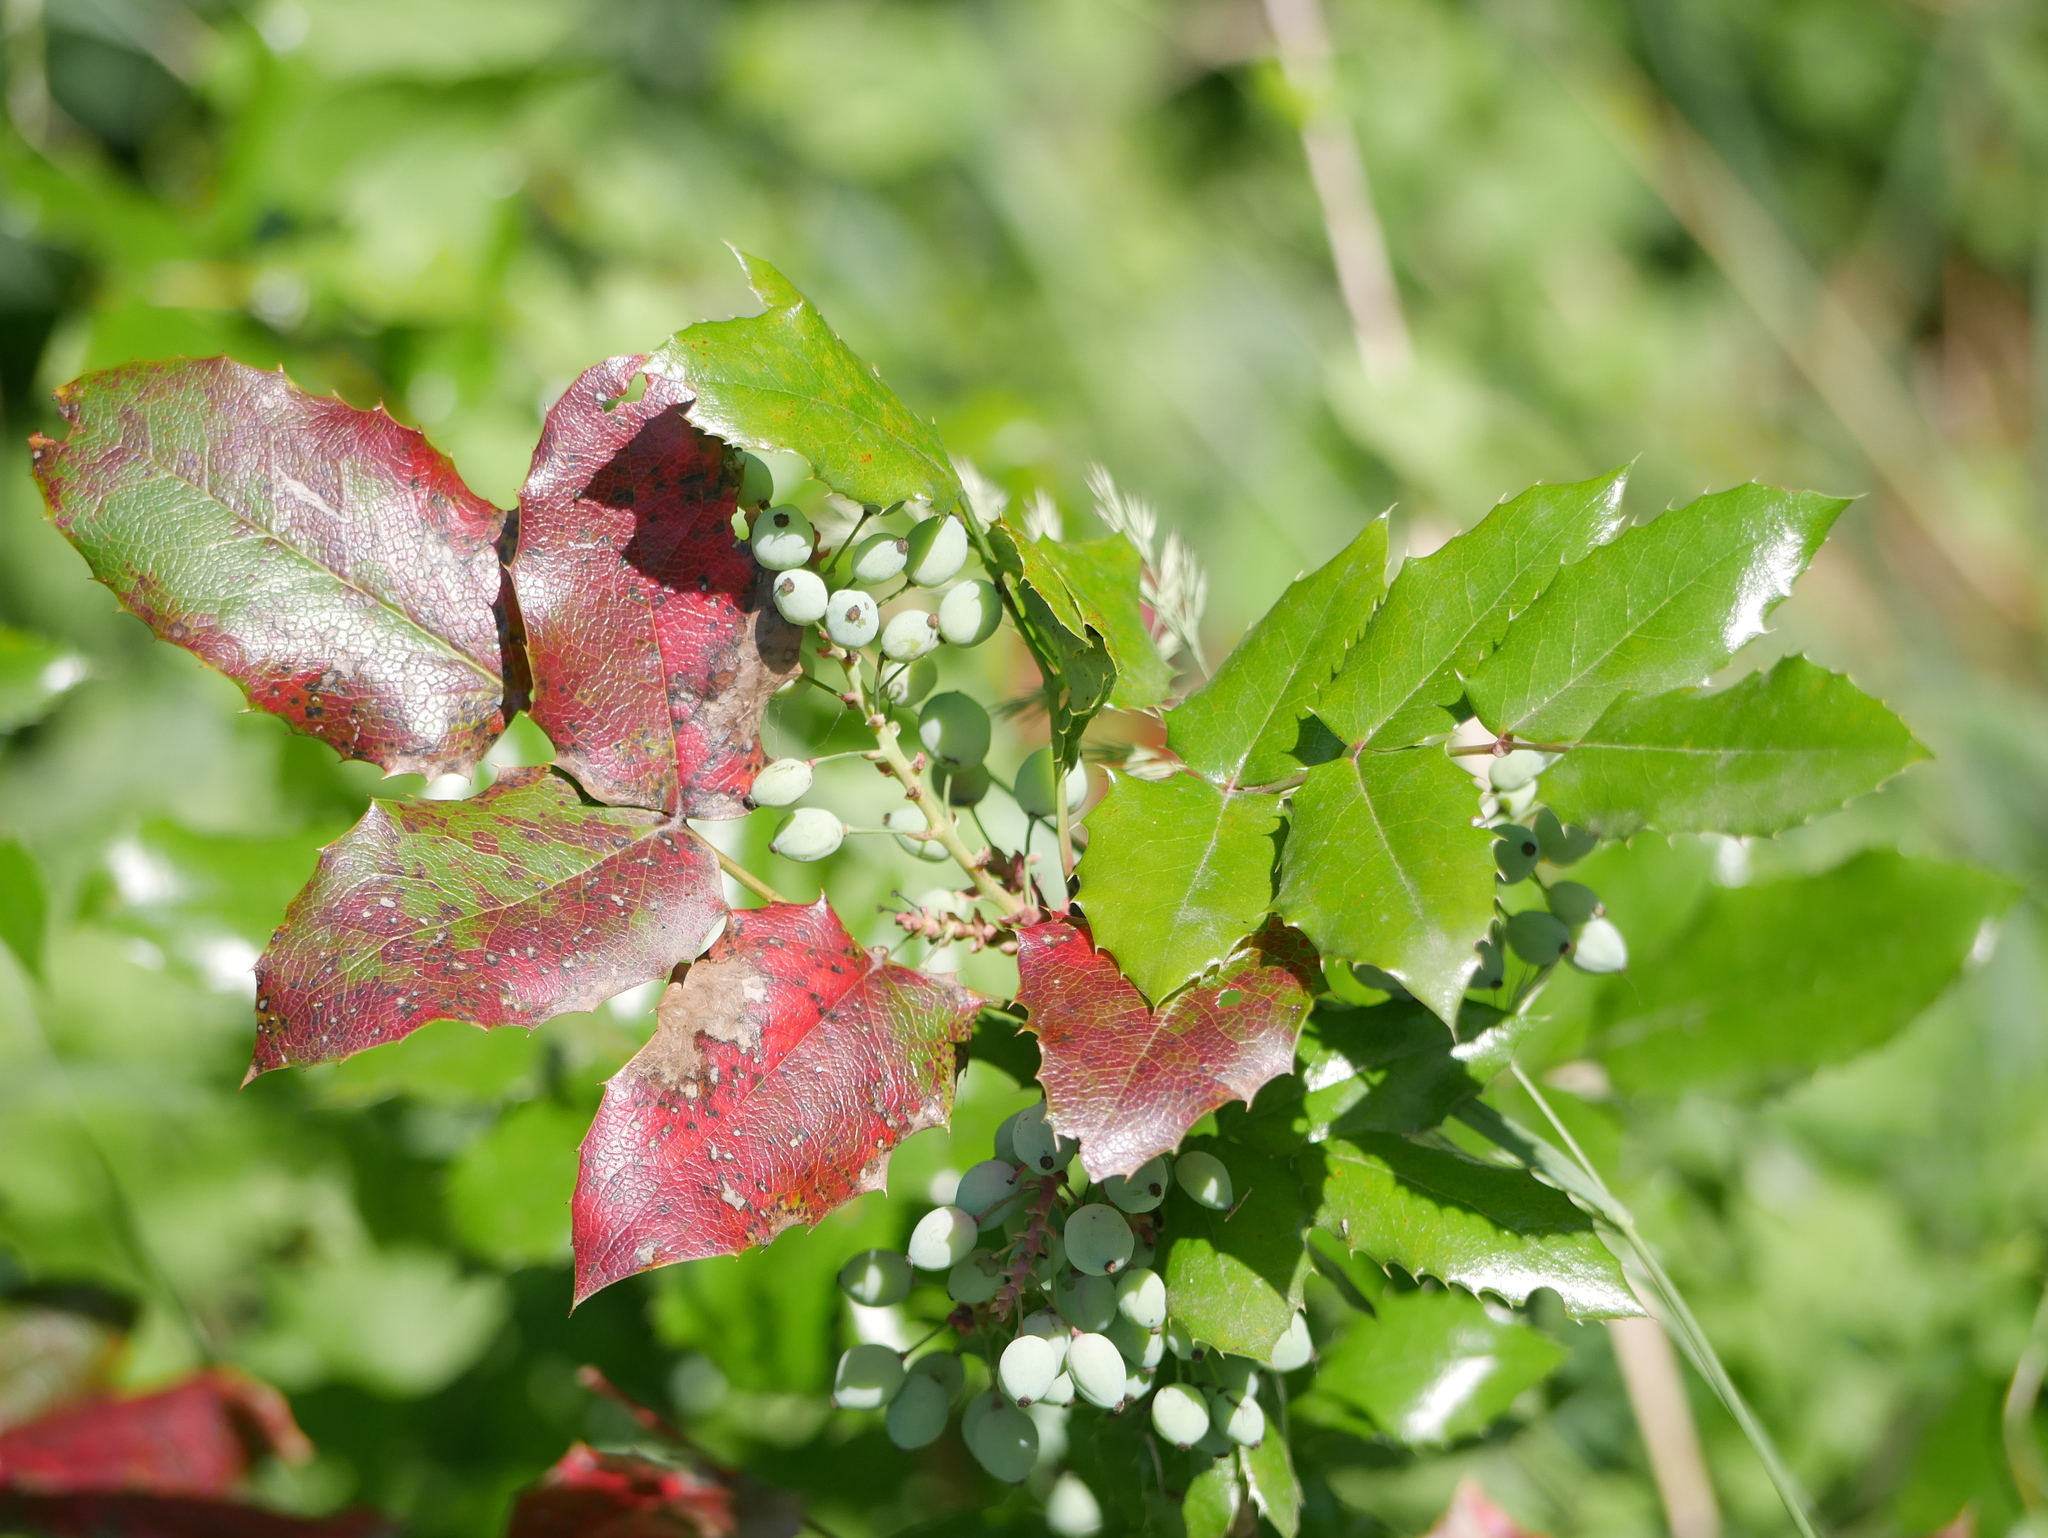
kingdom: Plantae
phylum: Tracheophyta
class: Magnoliopsida
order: Ranunculales
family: Berberidaceae
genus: Mahonia
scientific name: Mahonia aquifolium
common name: Oregon-grape
